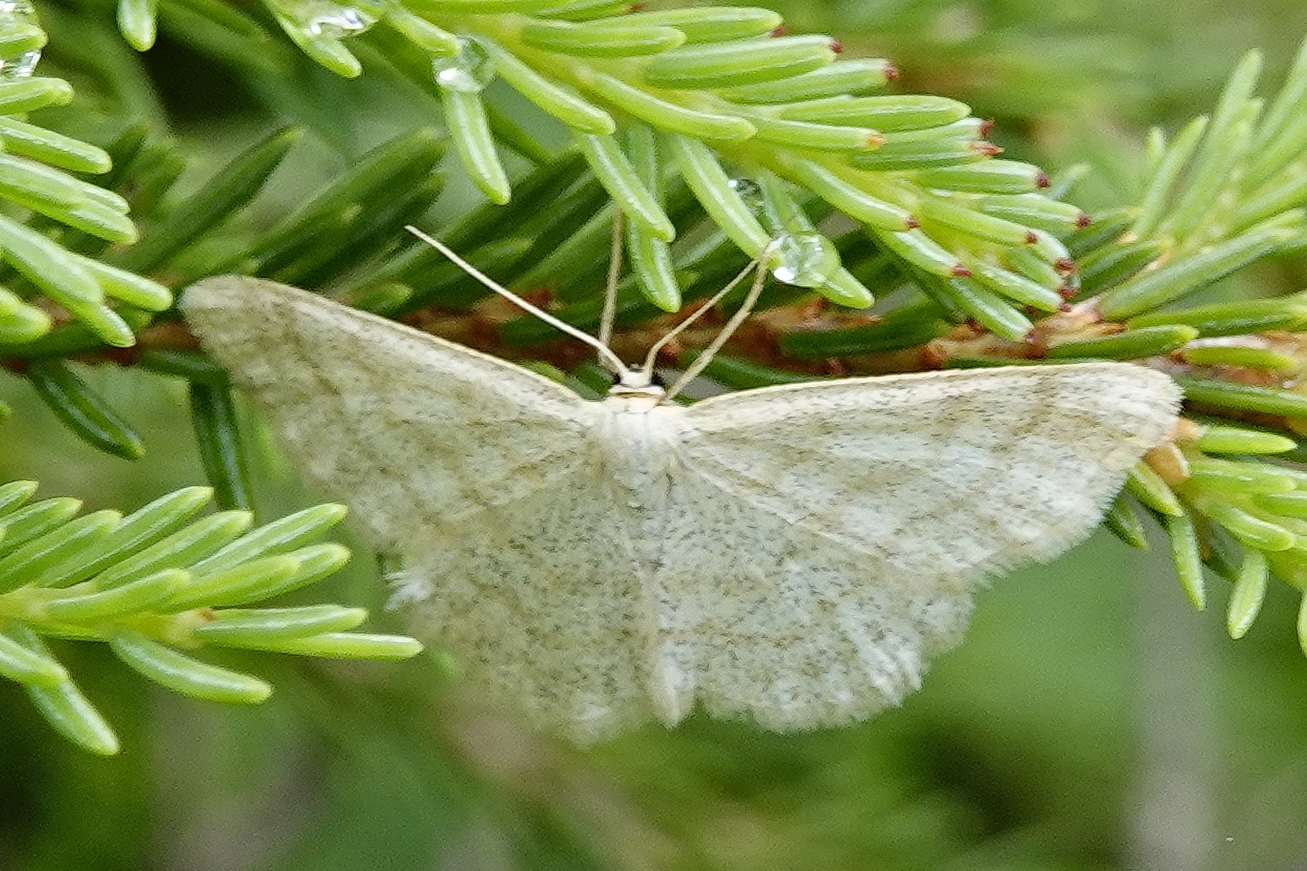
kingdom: Animalia
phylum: Arthropoda
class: Insecta
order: Lepidoptera
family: Geometridae
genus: Scopula
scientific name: Scopula ternata
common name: Smoky wave
